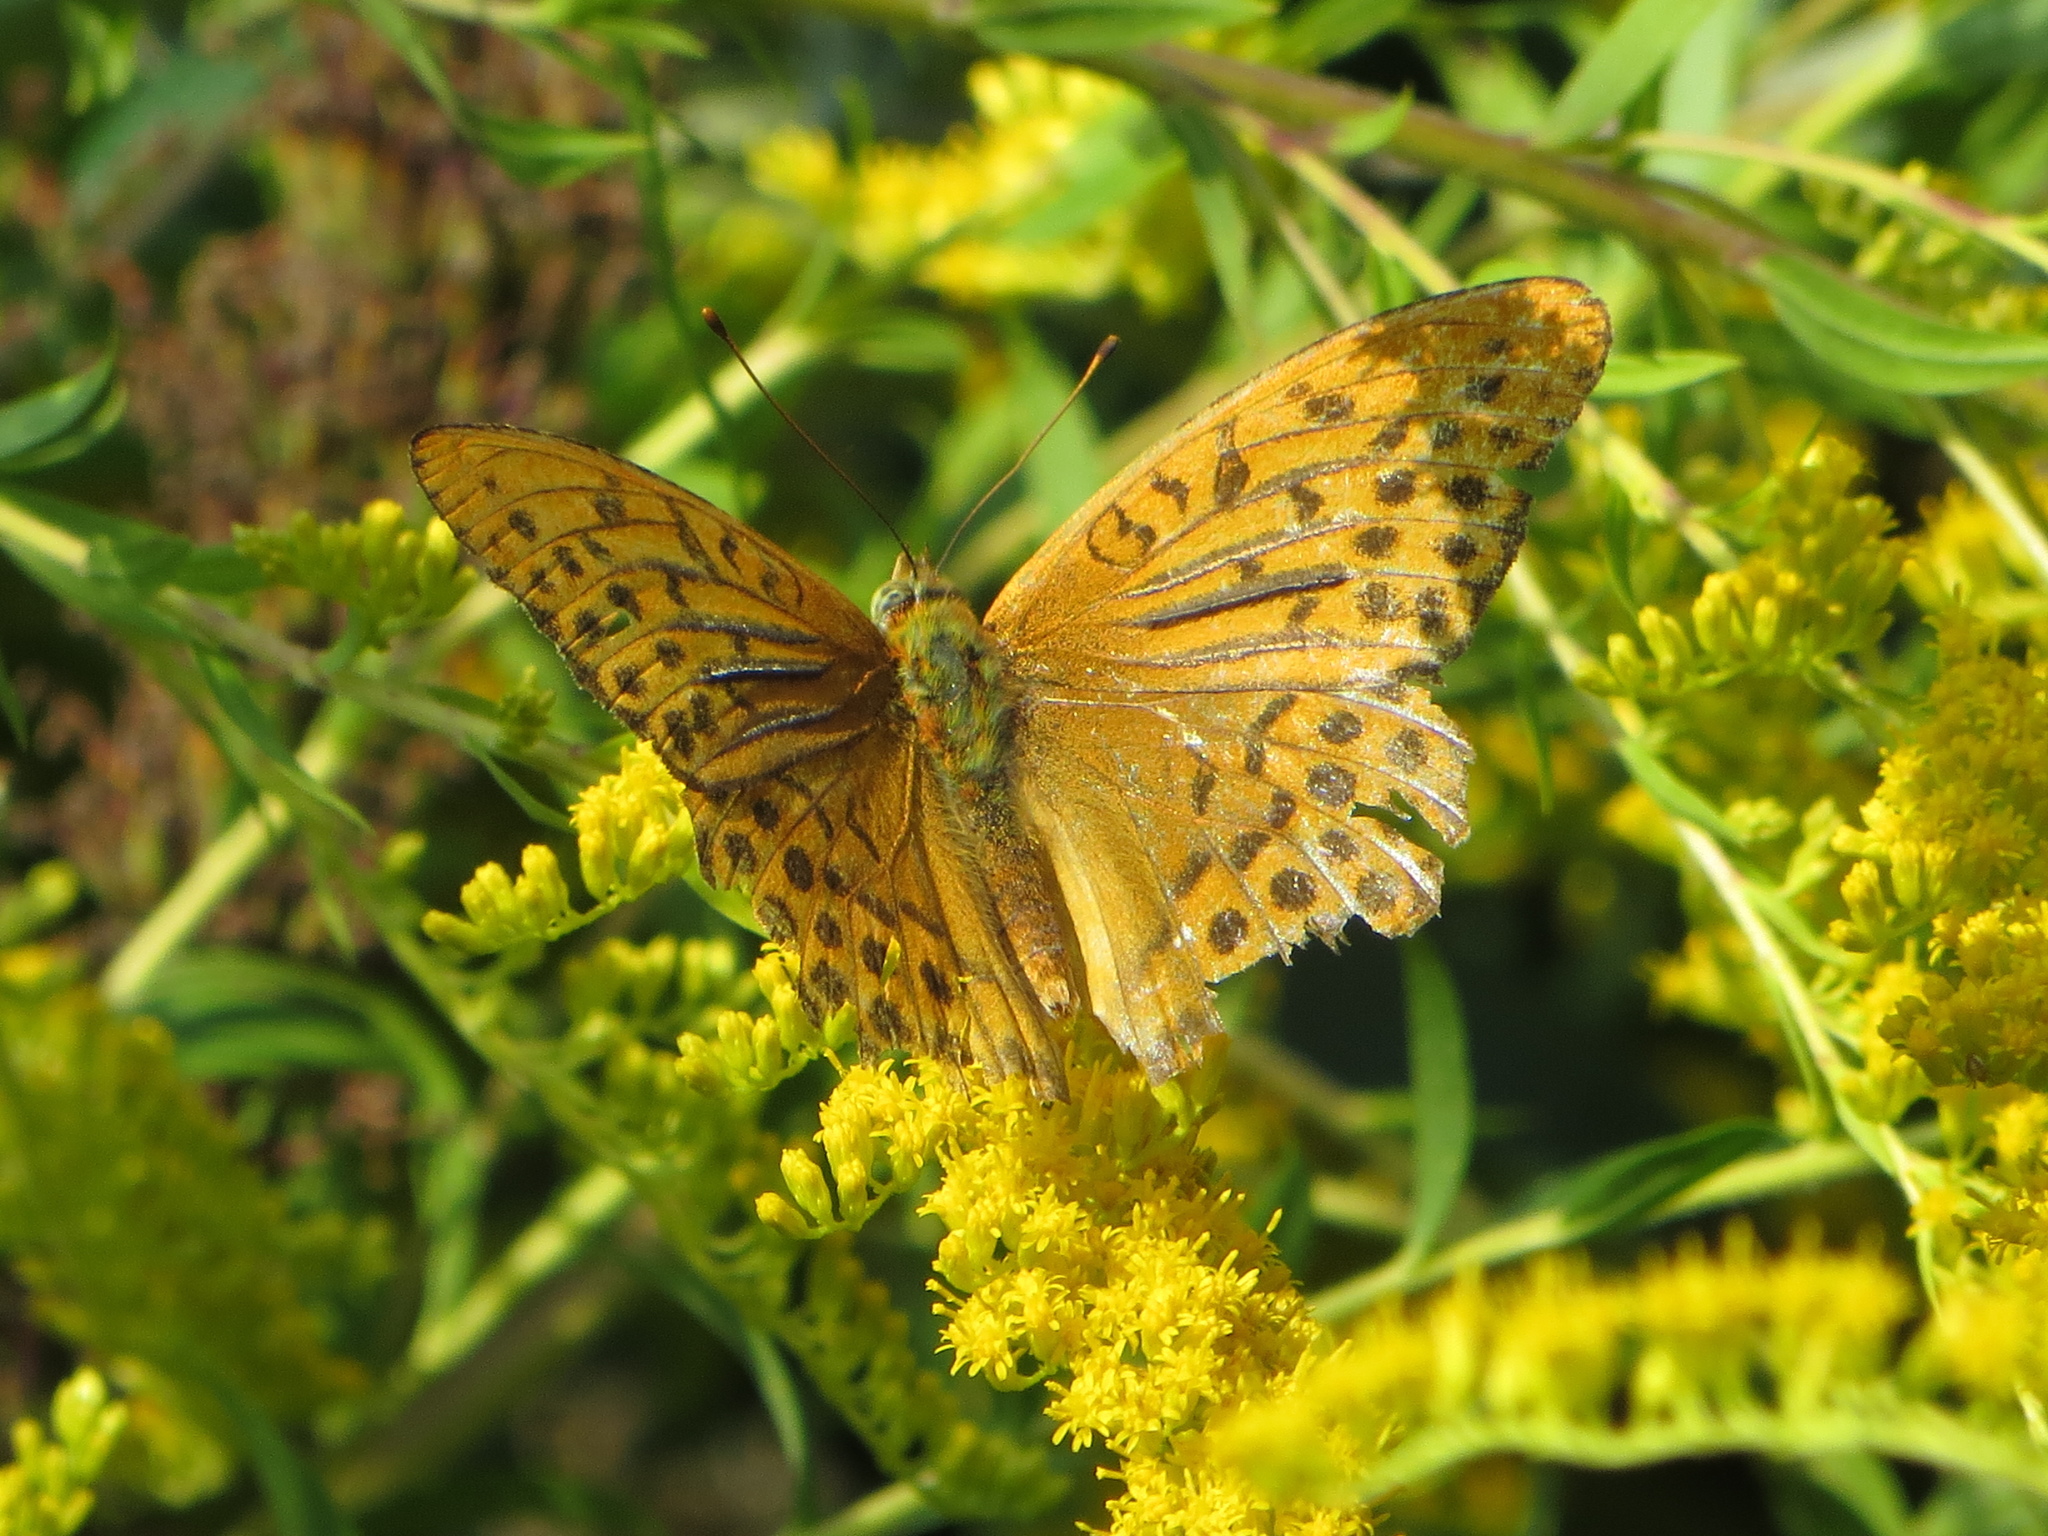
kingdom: Animalia
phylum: Arthropoda
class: Insecta
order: Lepidoptera
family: Nymphalidae
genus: Argynnis
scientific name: Argynnis paphia
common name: Silver-washed fritillary
